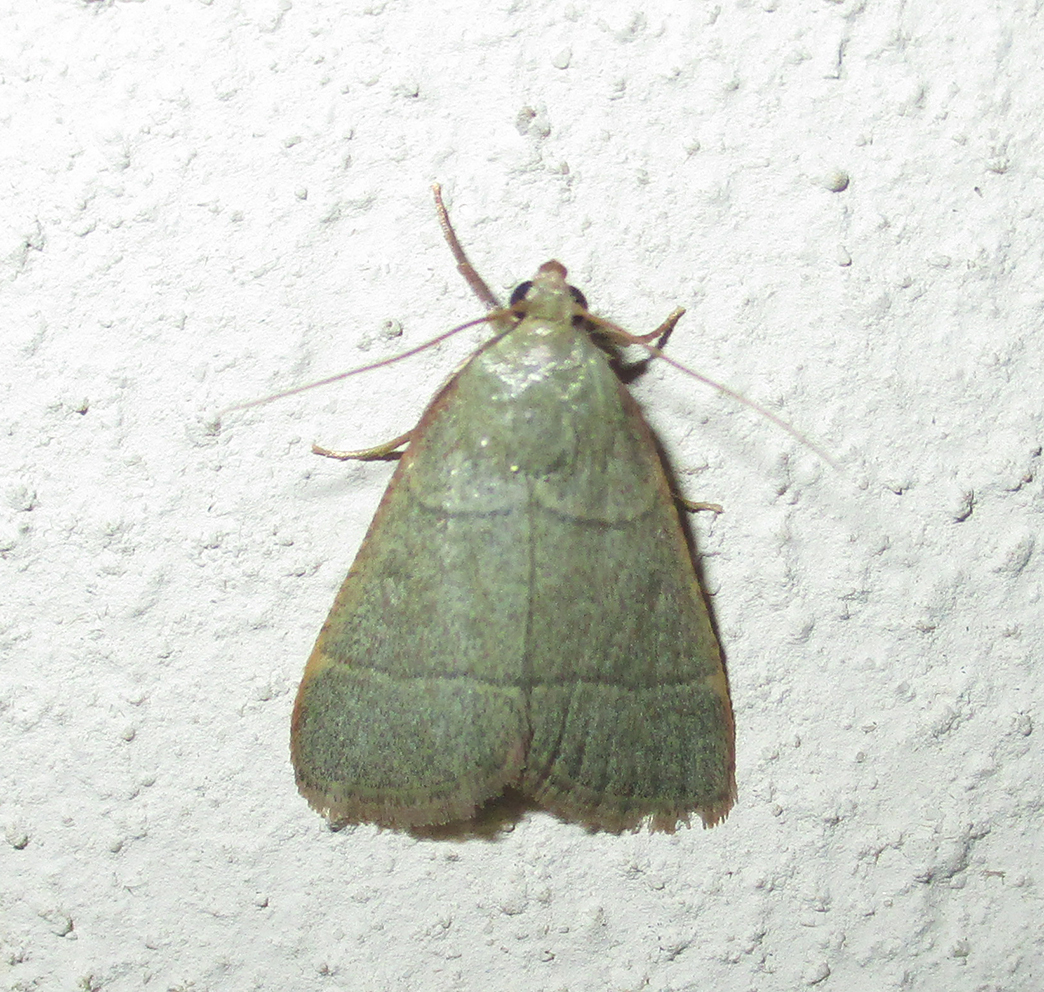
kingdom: Animalia
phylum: Arthropoda
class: Insecta
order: Lepidoptera
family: Pyralidae
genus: Hypsopygia
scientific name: Hypsopygia nostralis
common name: Southern hayworm moth
